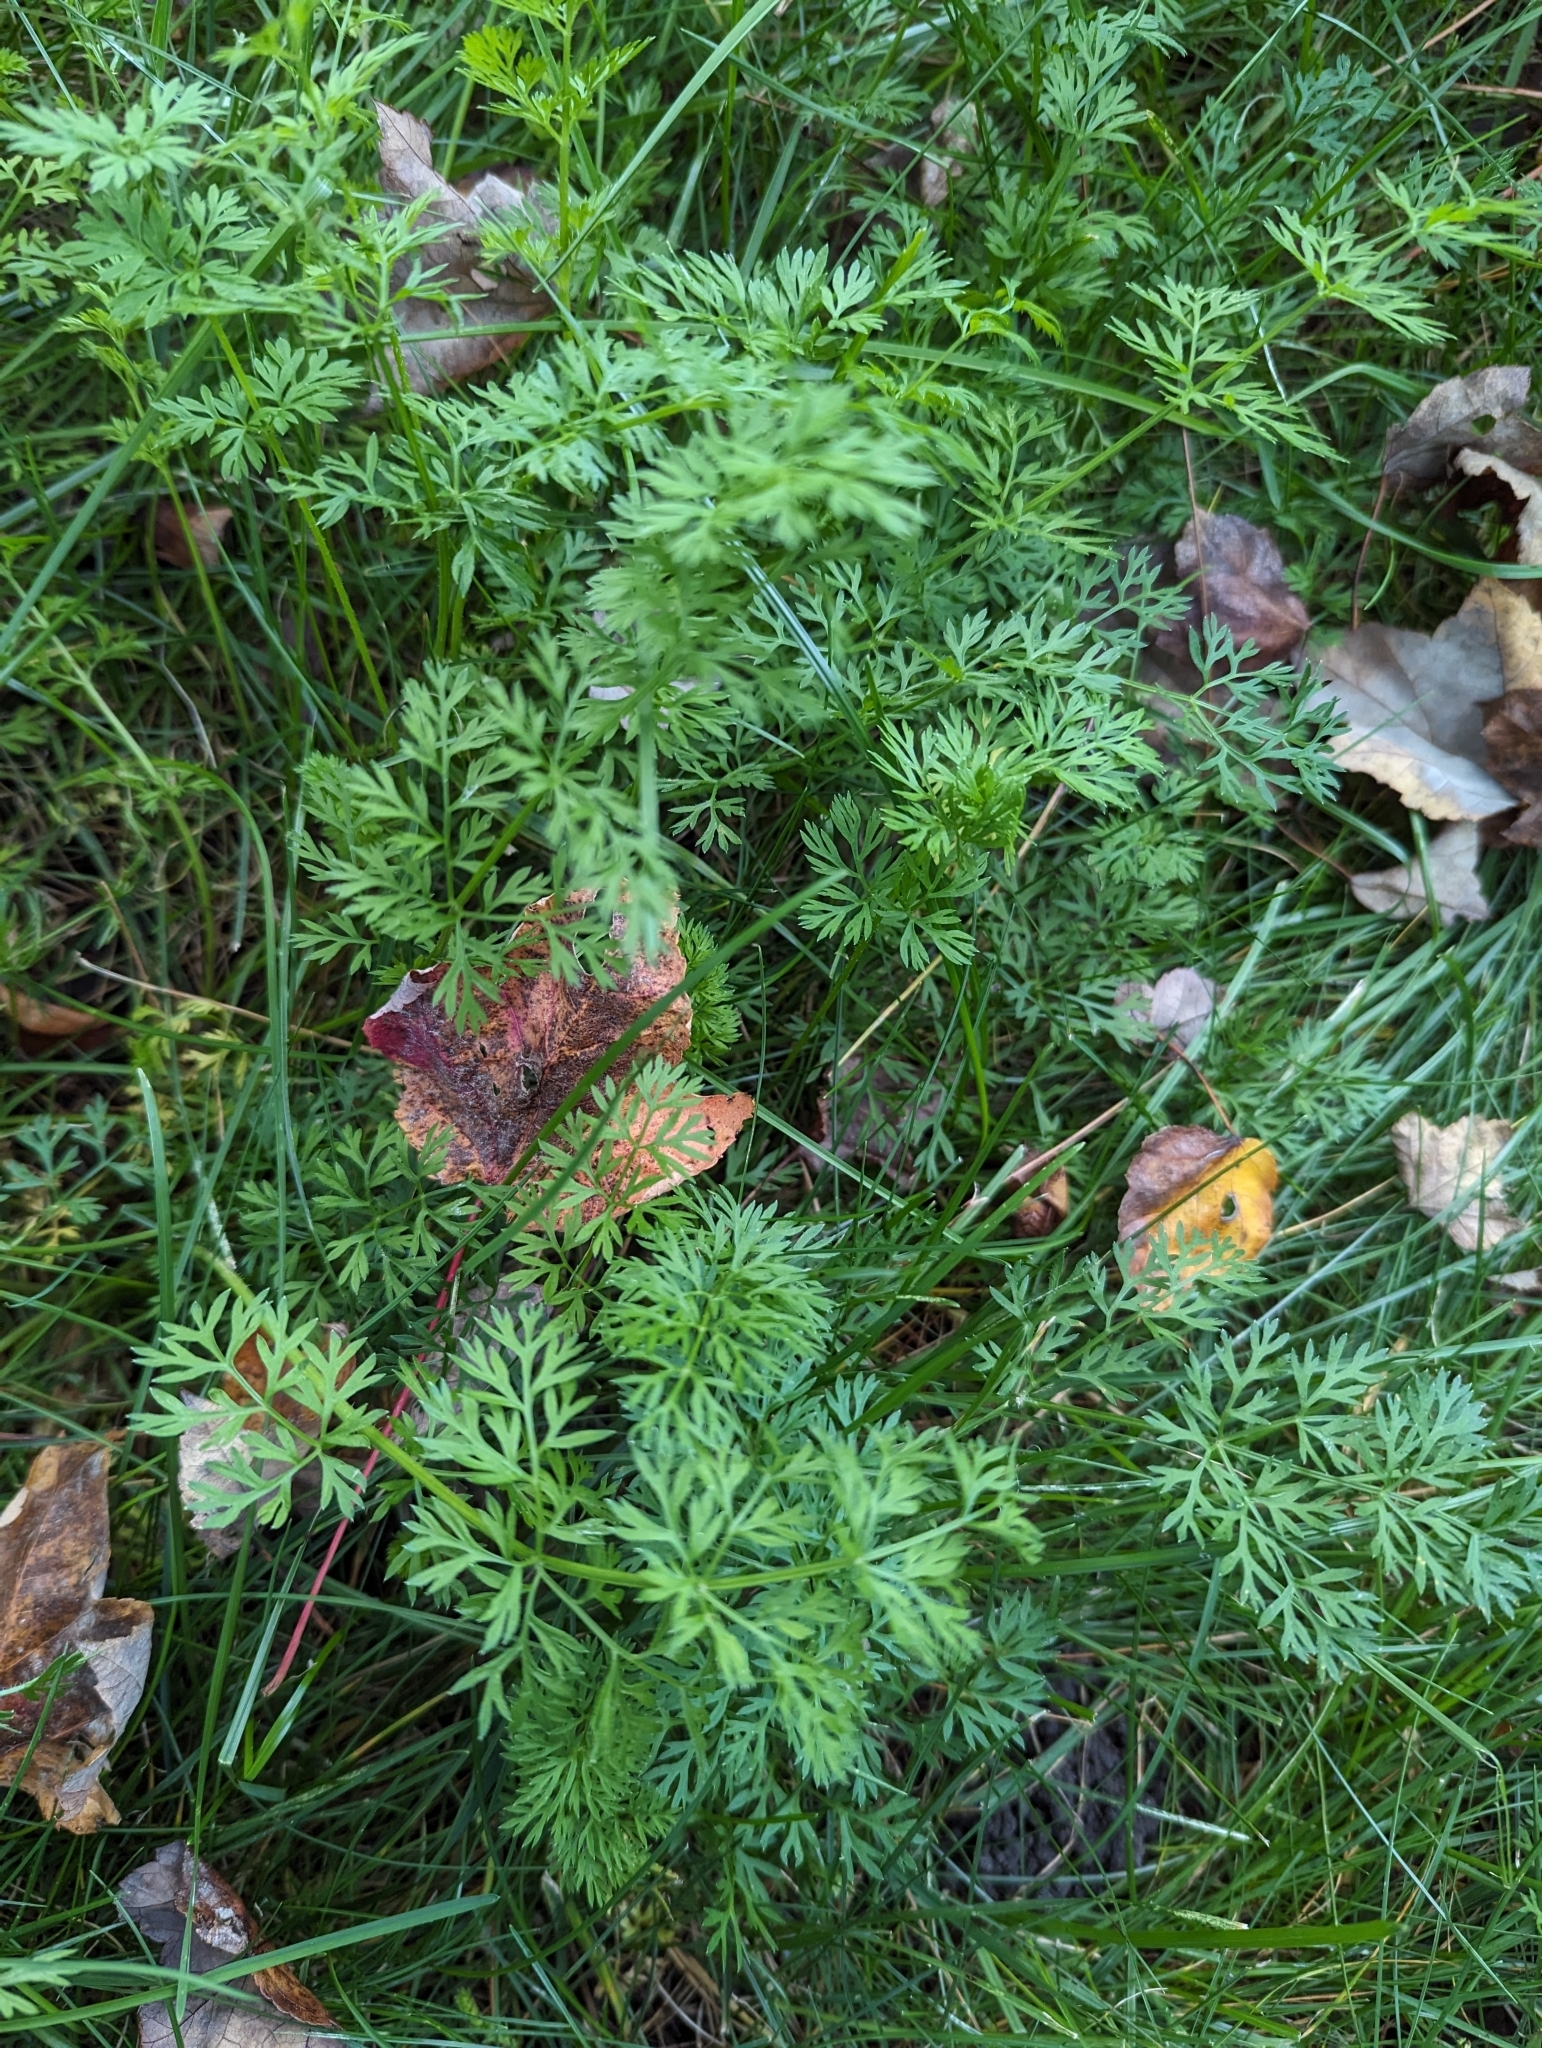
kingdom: Plantae
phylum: Tracheophyta
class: Magnoliopsida
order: Apiales
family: Apiaceae
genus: Daucus
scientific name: Daucus carota
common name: Wild carrot
